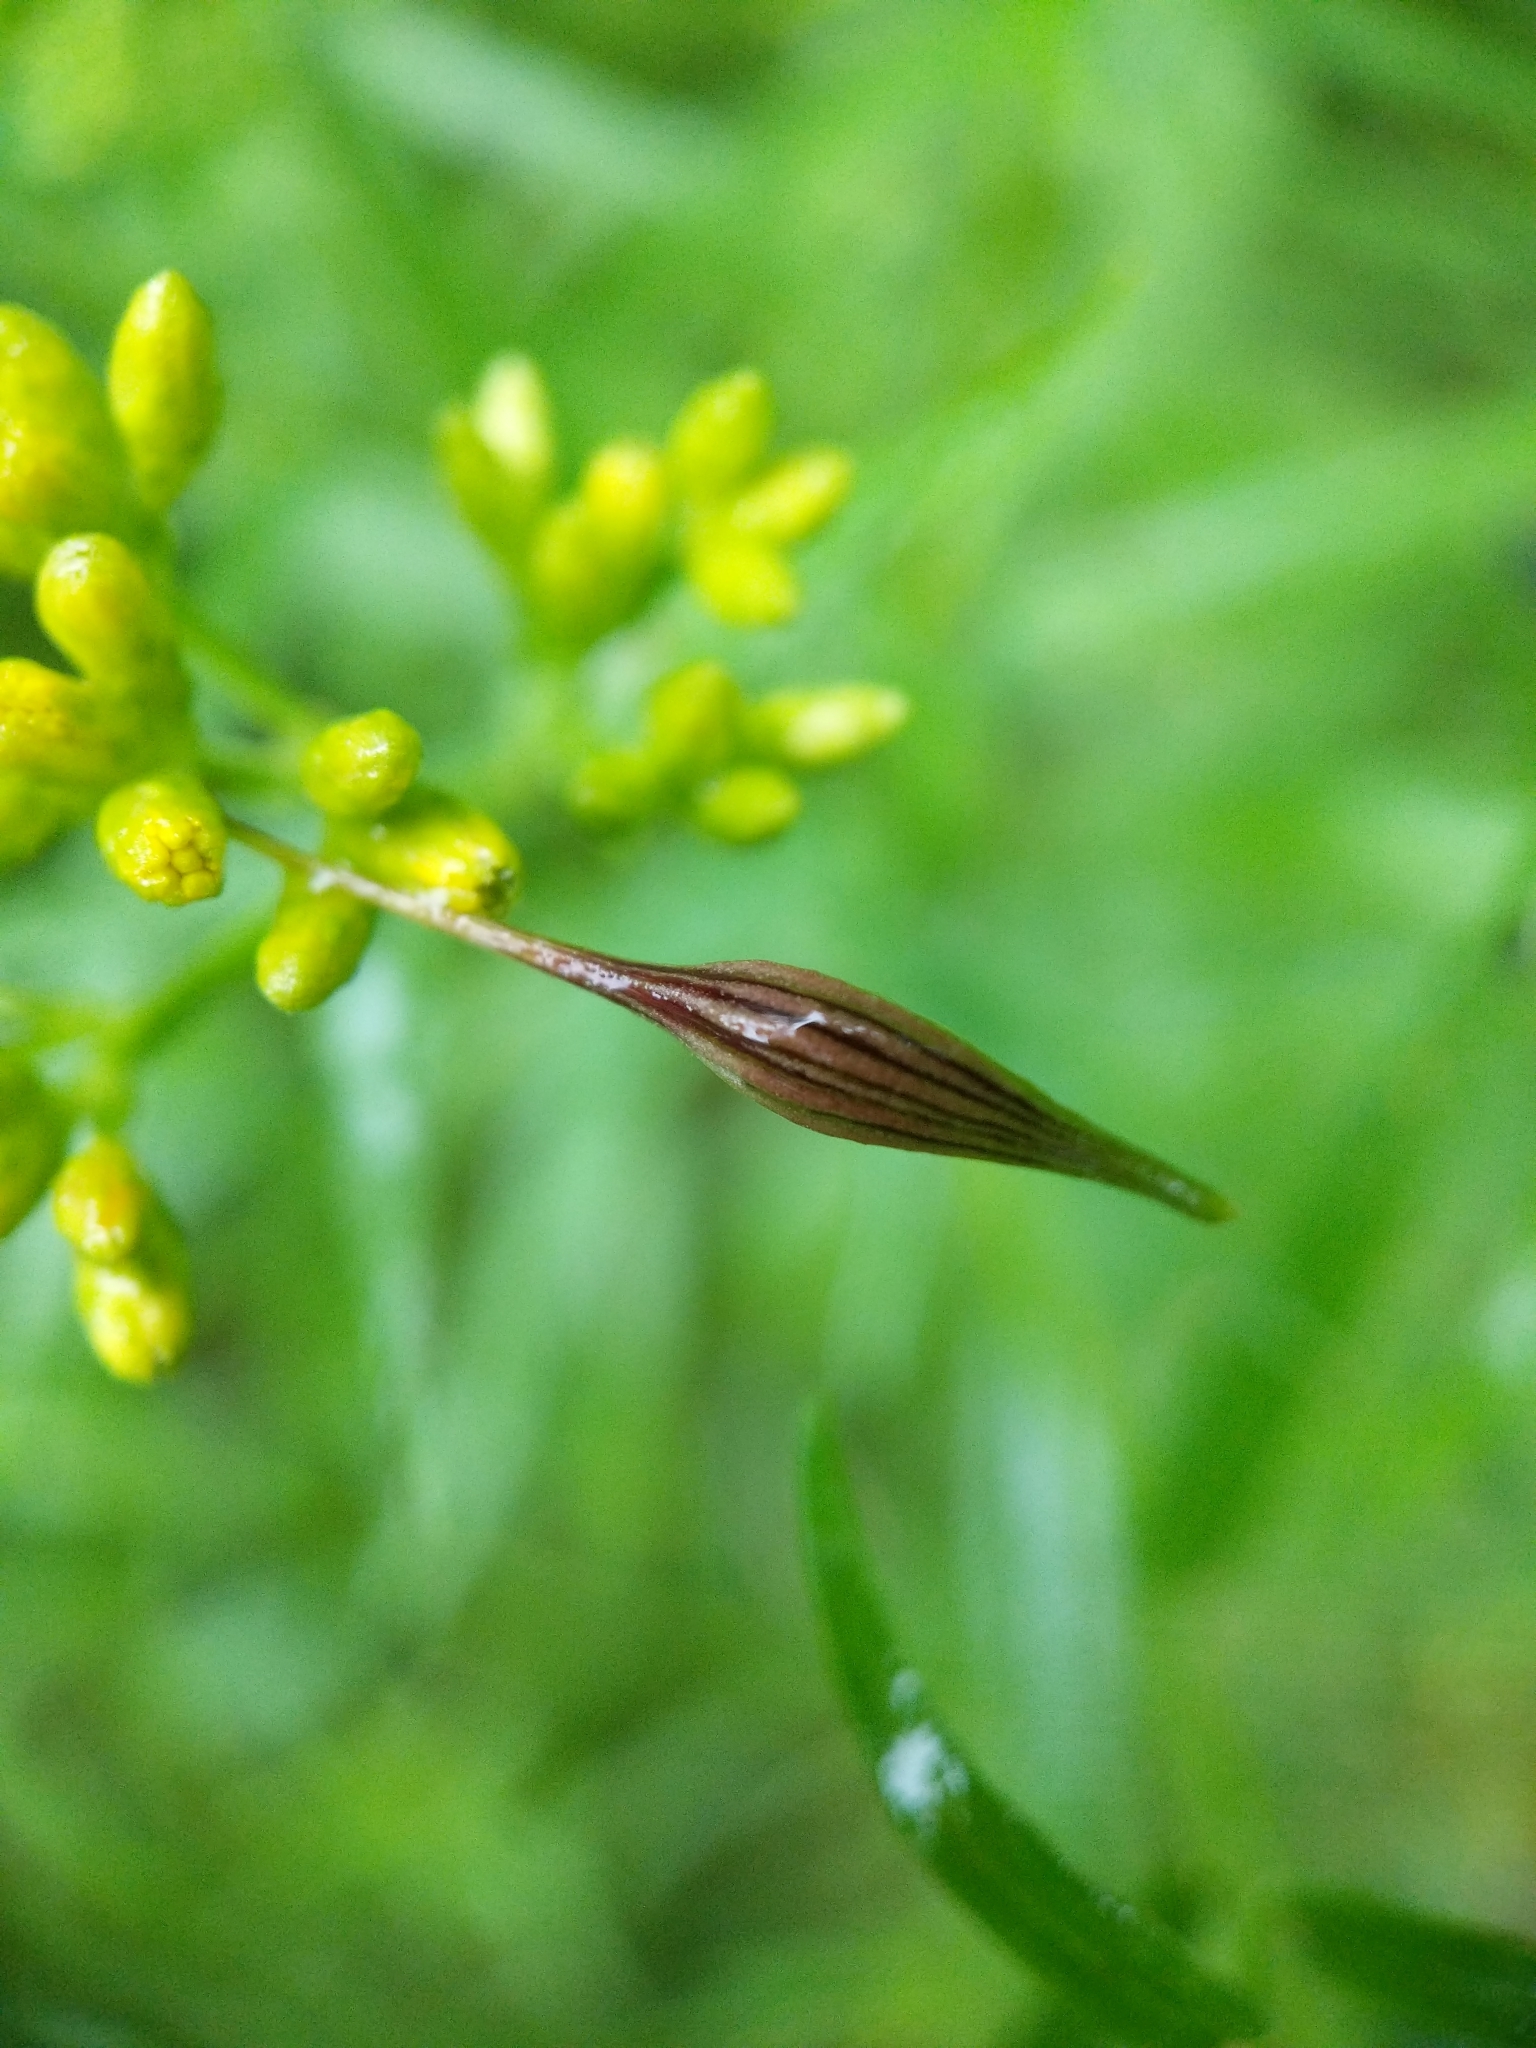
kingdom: Animalia
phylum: Arthropoda
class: Insecta
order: Diptera
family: Cecidomyiidae
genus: Rhopalomyia
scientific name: Rhopalomyia pedicellata
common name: Goldentop pedicellate gall midge
